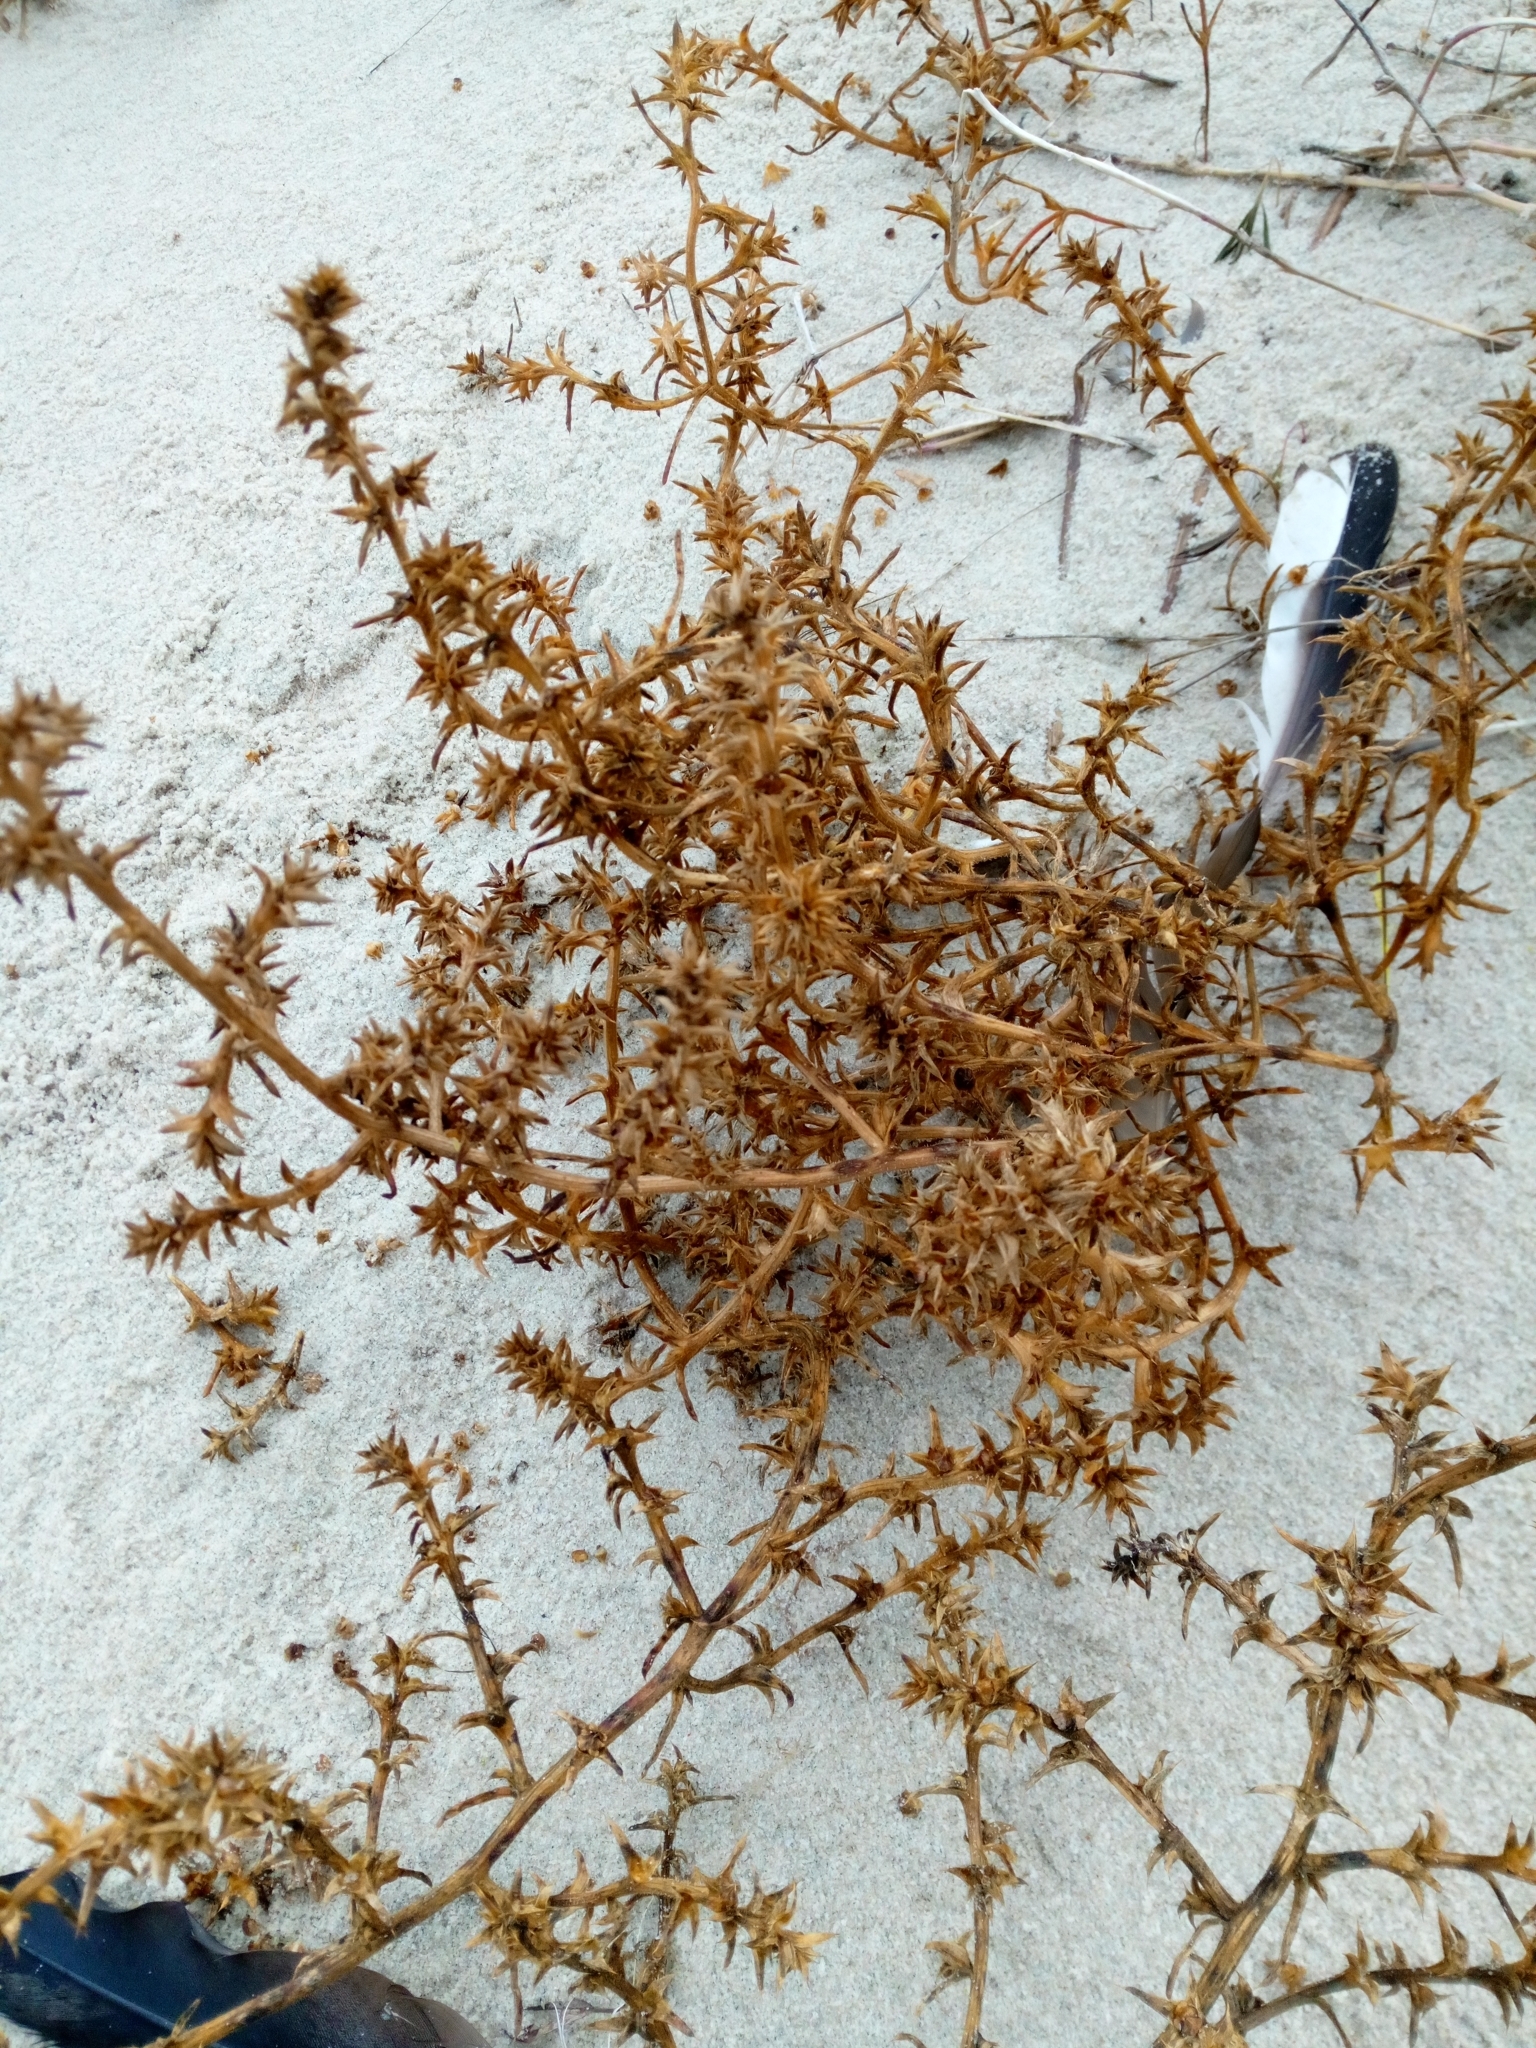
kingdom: Plantae
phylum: Tracheophyta
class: Magnoliopsida
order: Caryophyllales
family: Amaranthaceae
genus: Salsola
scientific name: Salsola kali
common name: Saltwort
